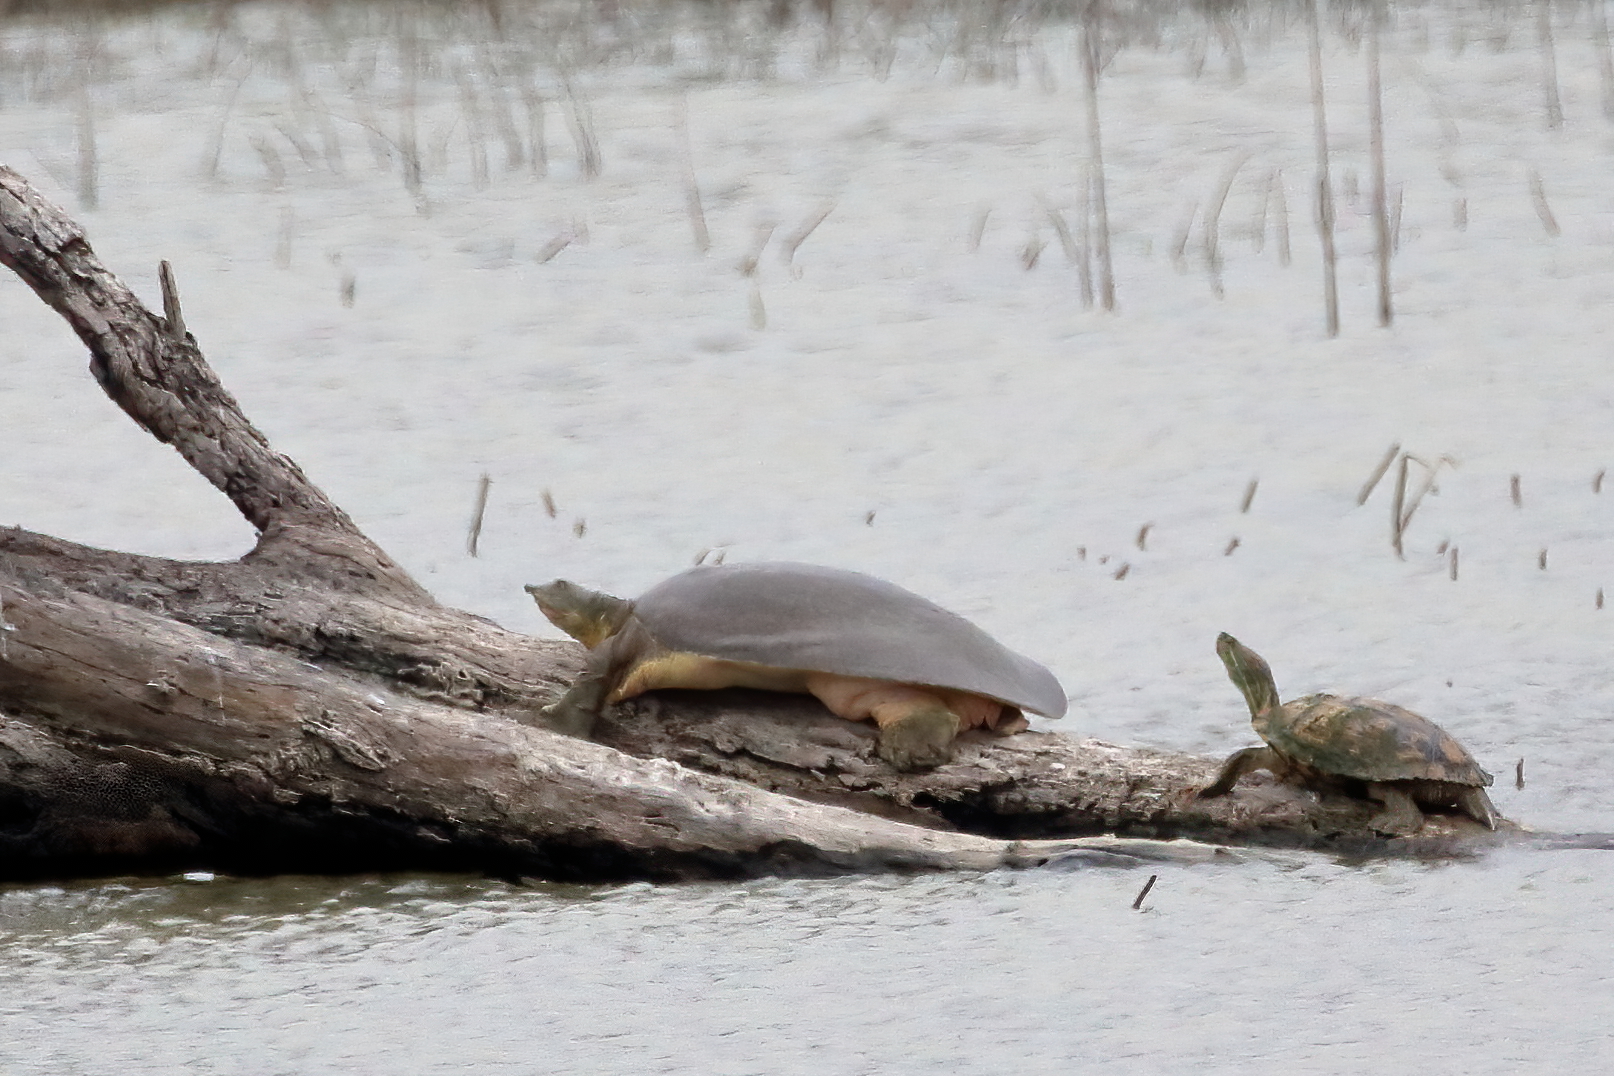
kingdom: Animalia
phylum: Chordata
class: Testudines
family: Trionychidae
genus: Apalone
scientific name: Apalone spinifera
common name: Spiny softshell turtle
